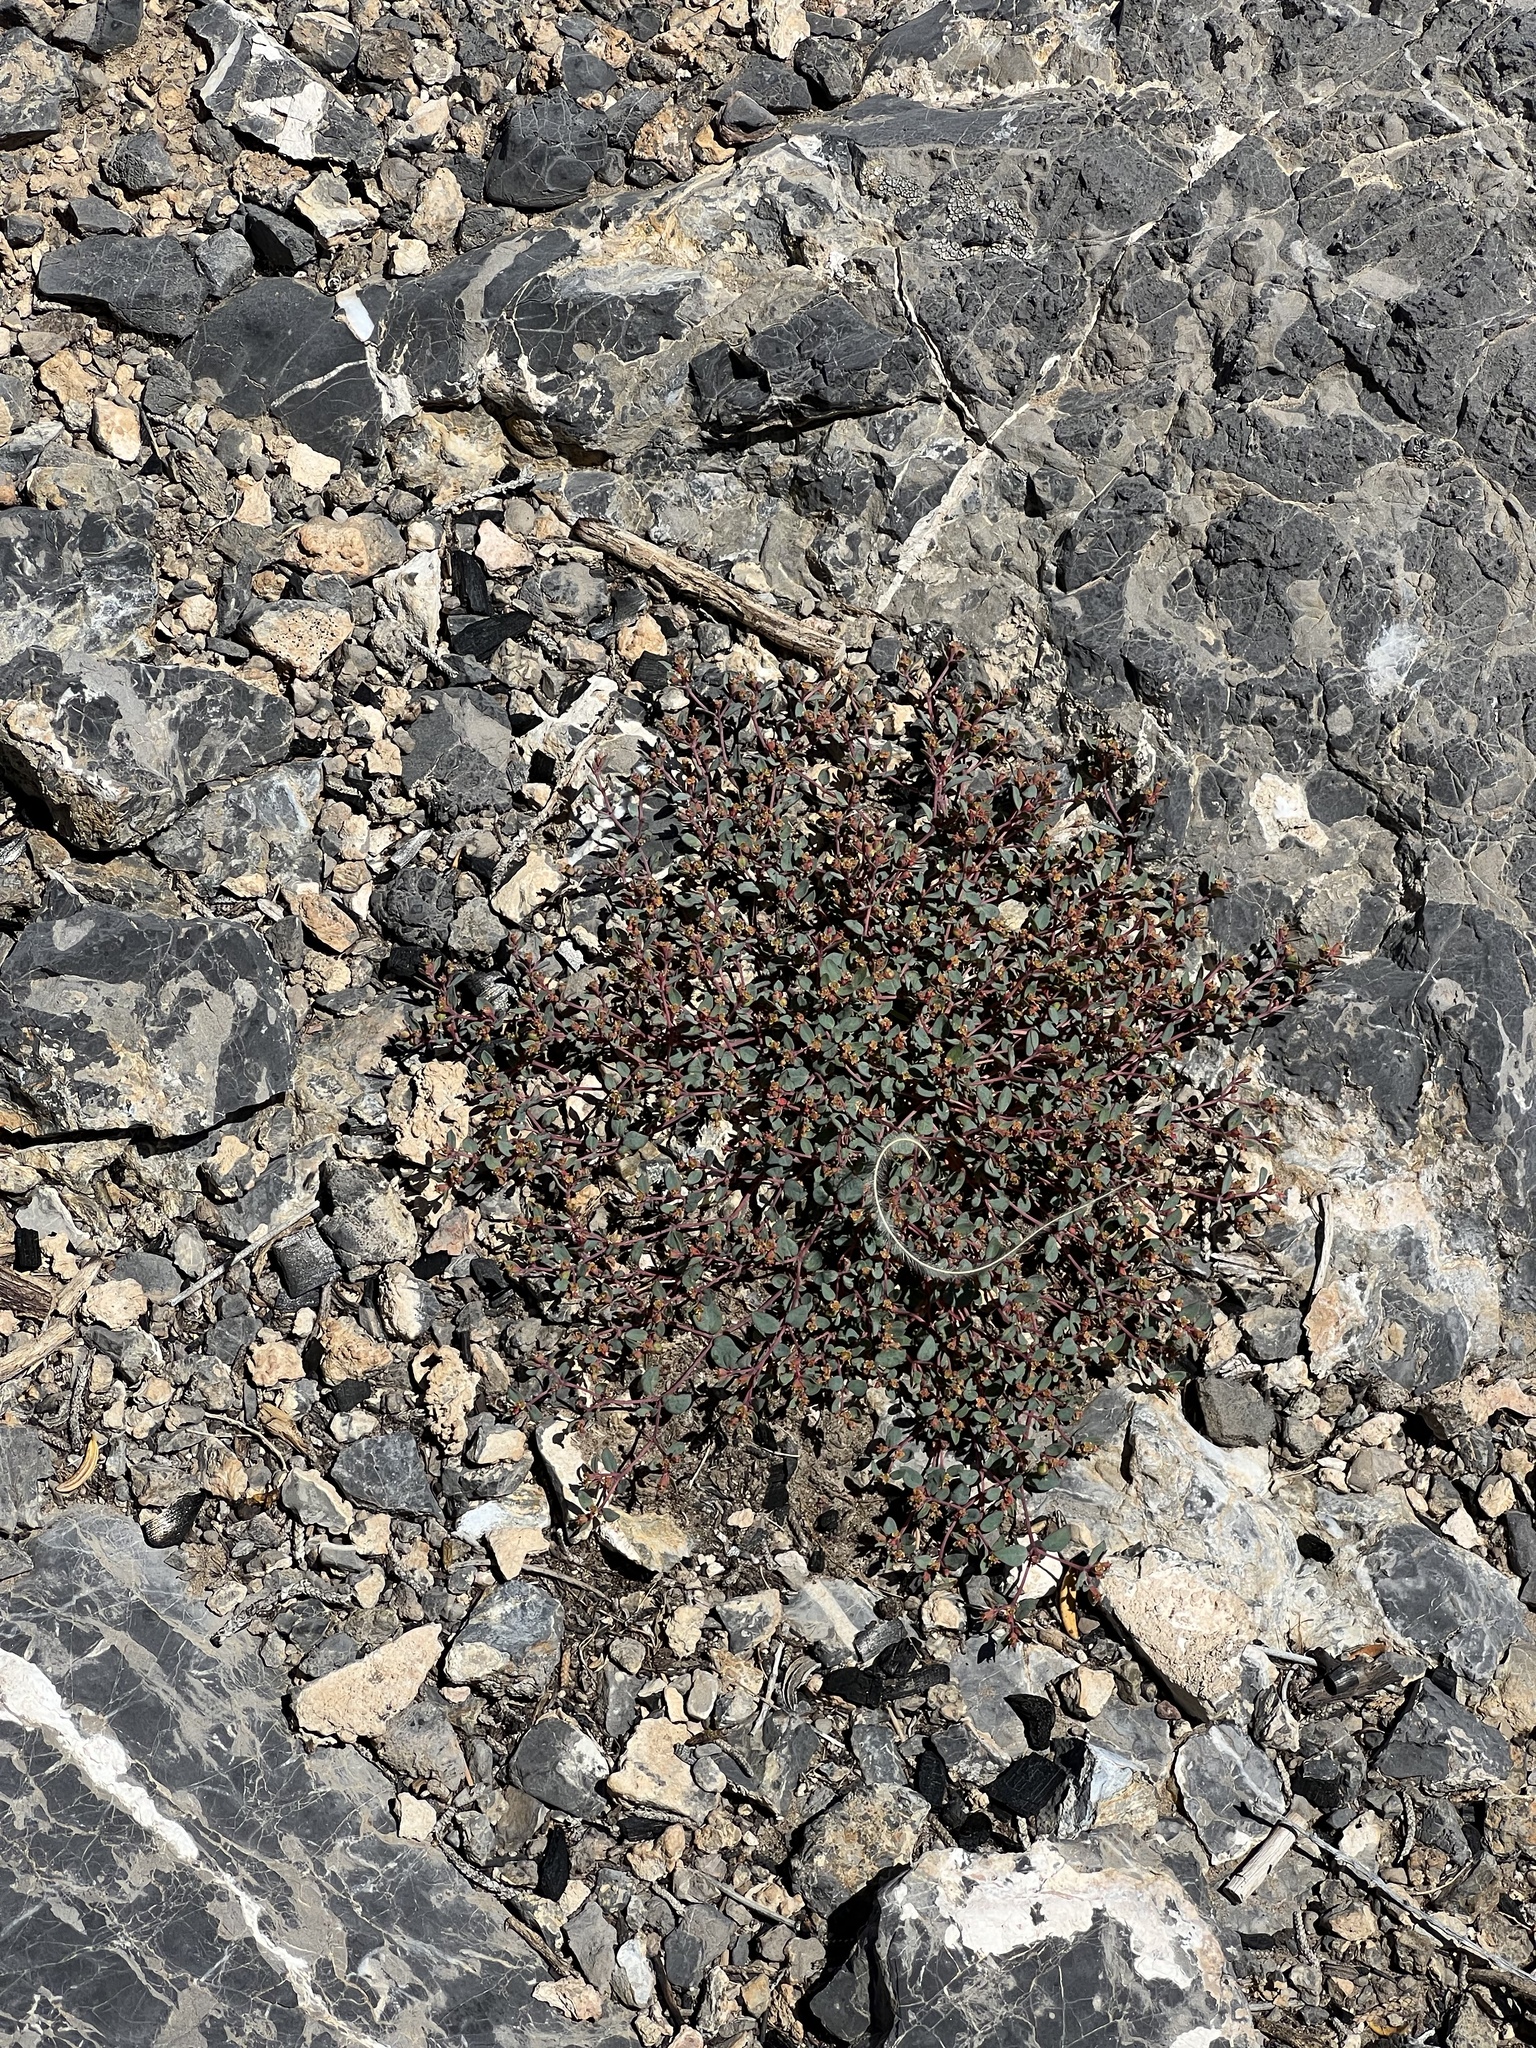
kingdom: Plantae
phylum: Tracheophyta
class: Magnoliopsida
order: Malpighiales
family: Euphorbiaceae
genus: Euphorbia
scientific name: Euphorbia fendleri
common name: Fendler's euphorbia
